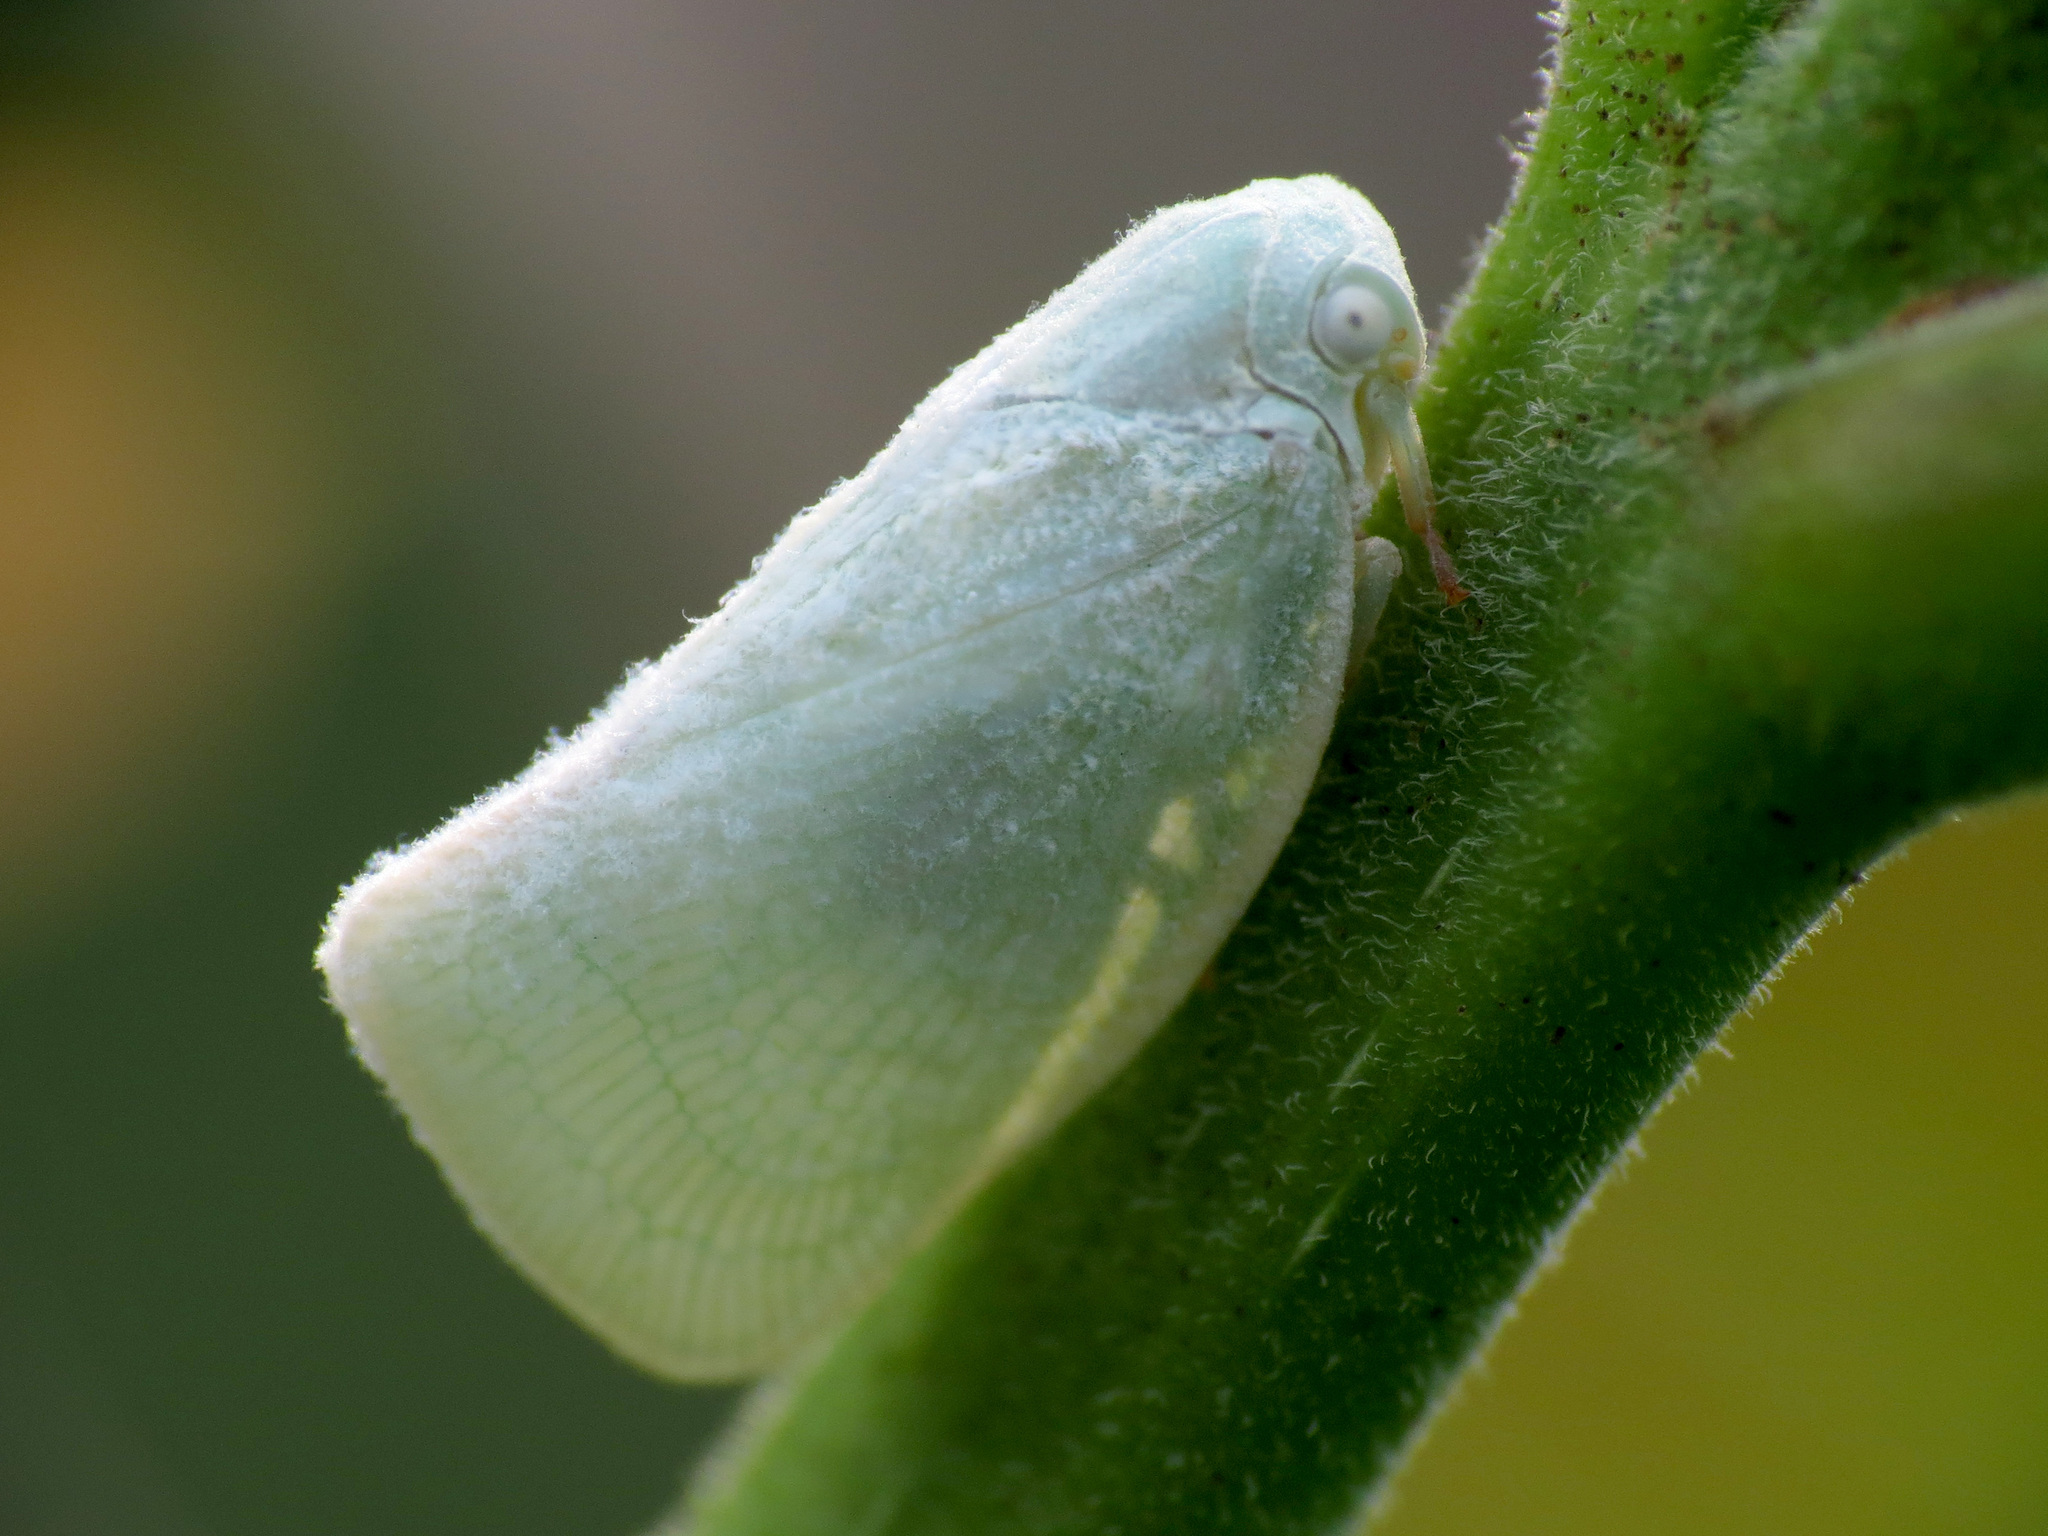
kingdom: Animalia
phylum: Arthropoda
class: Insecta
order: Hemiptera
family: Flatidae
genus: Flatormenis
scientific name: Flatormenis proxima
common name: Northern flatid planthopper
